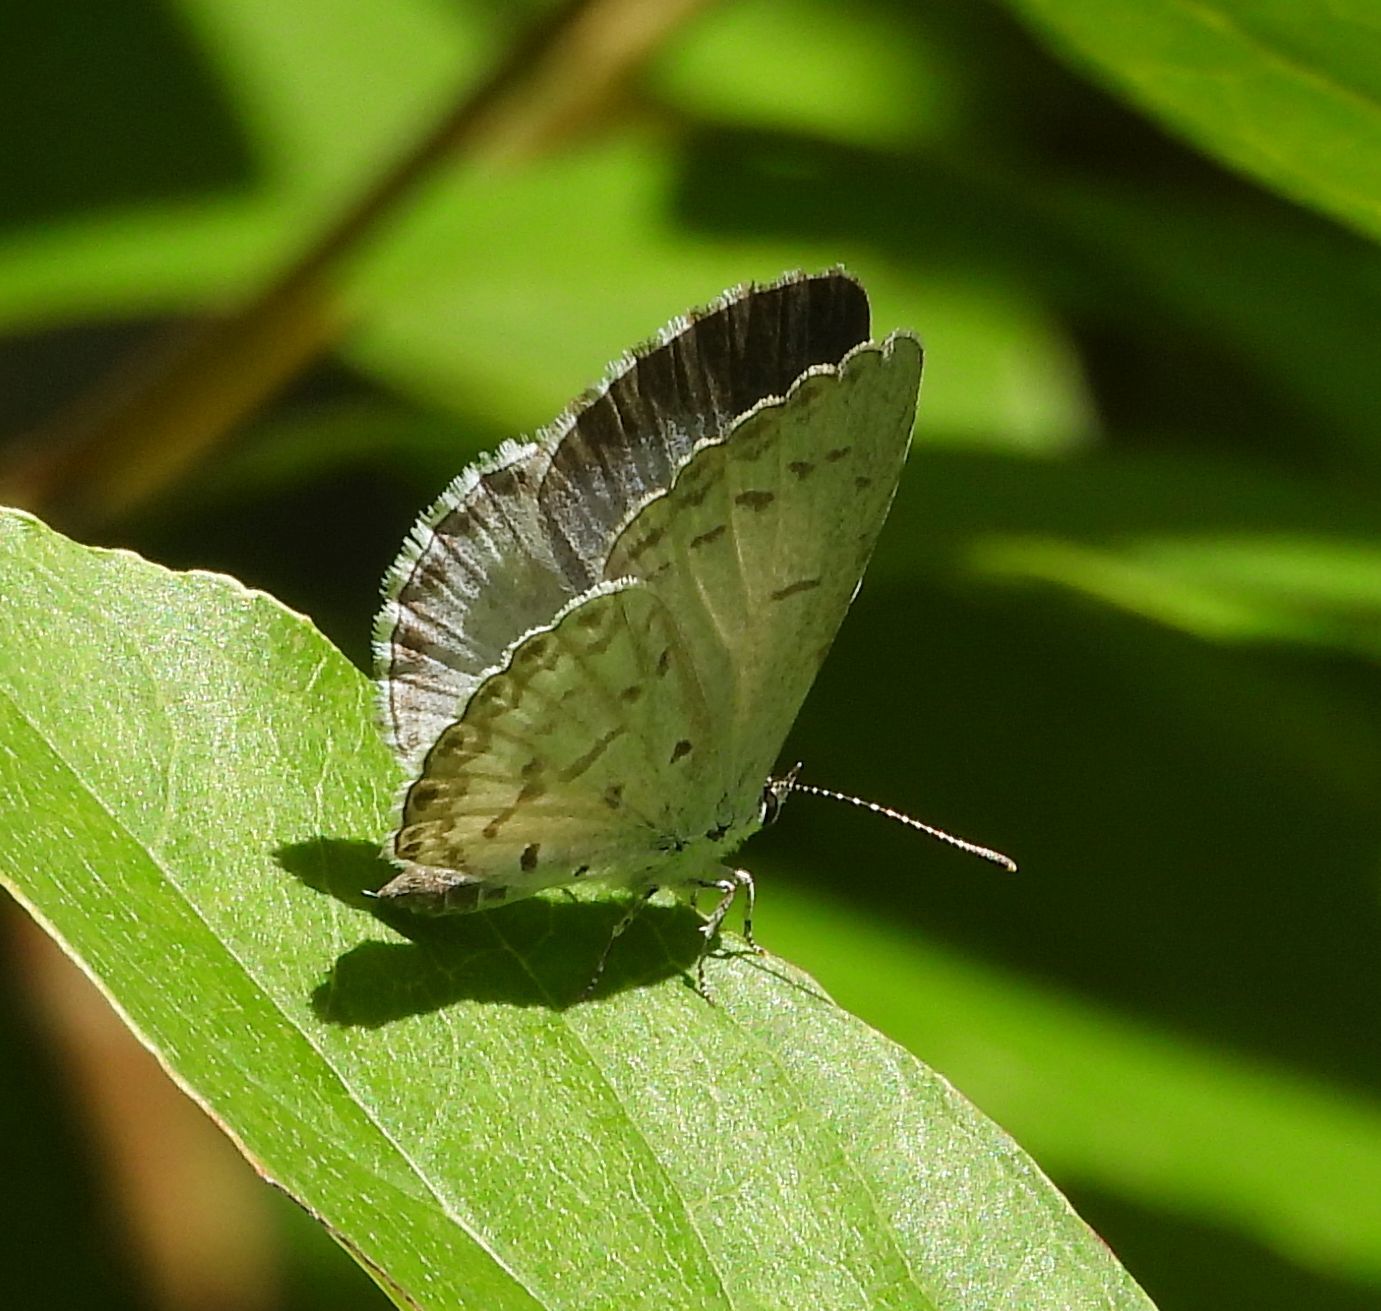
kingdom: Animalia
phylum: Arthropoda
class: Insecta
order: Lepidoptera
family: Lycaenidae
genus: Celastrina
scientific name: Celastrina lucia
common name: Lucia azure
